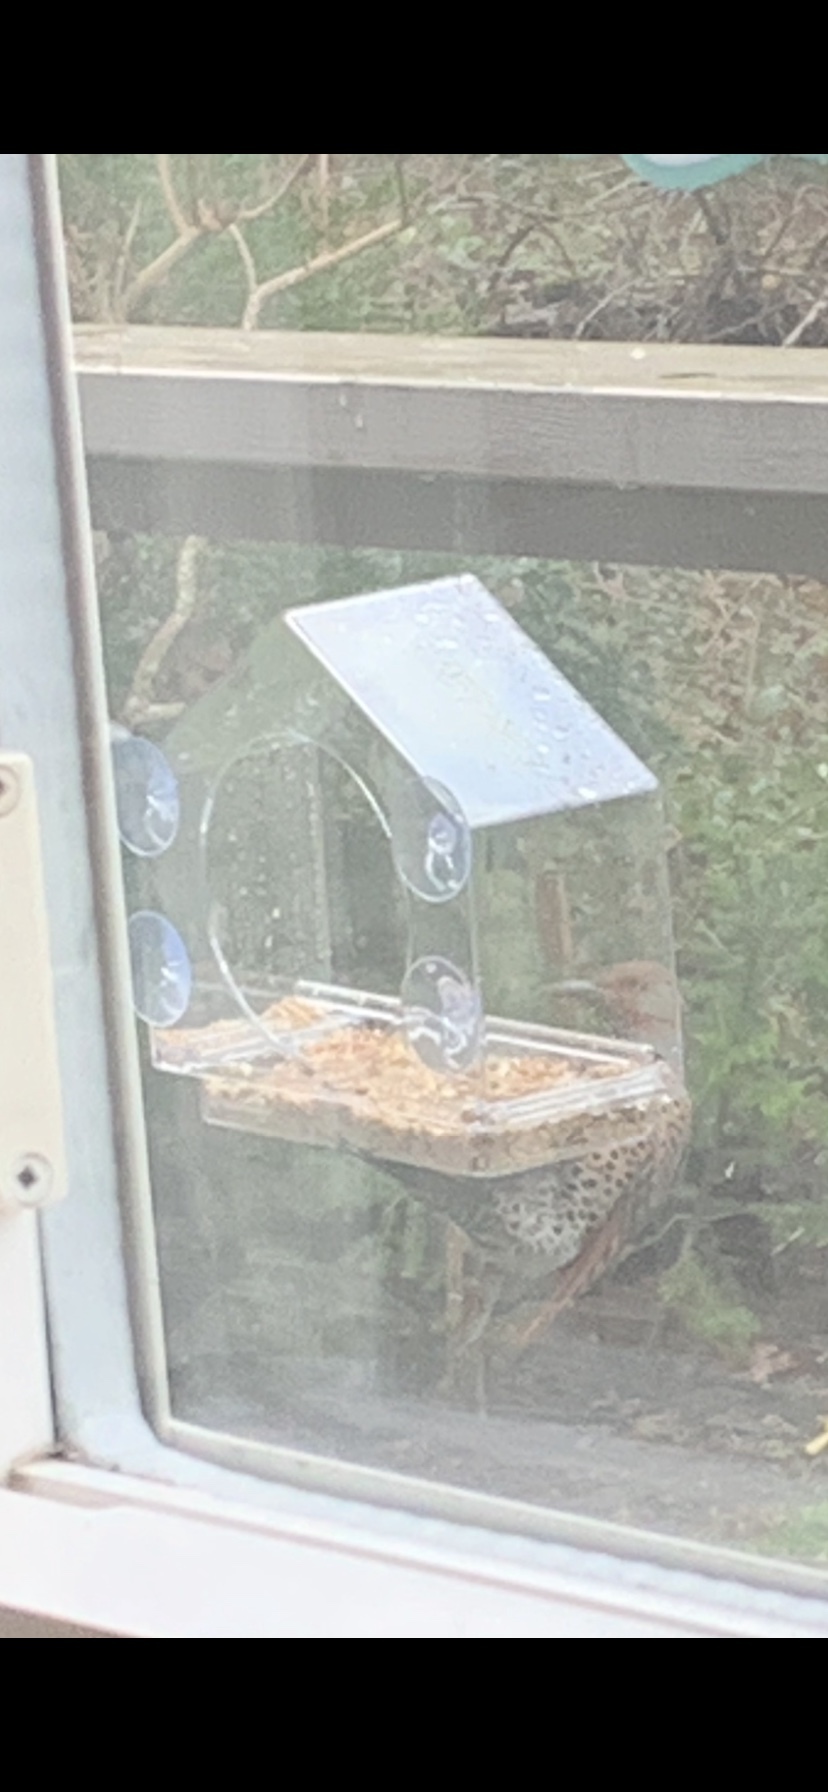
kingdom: Animalia
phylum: Chordata
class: Aves
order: Piciformes
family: Picidae
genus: Colaptes
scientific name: Colaptes auratus
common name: Northern flicker
